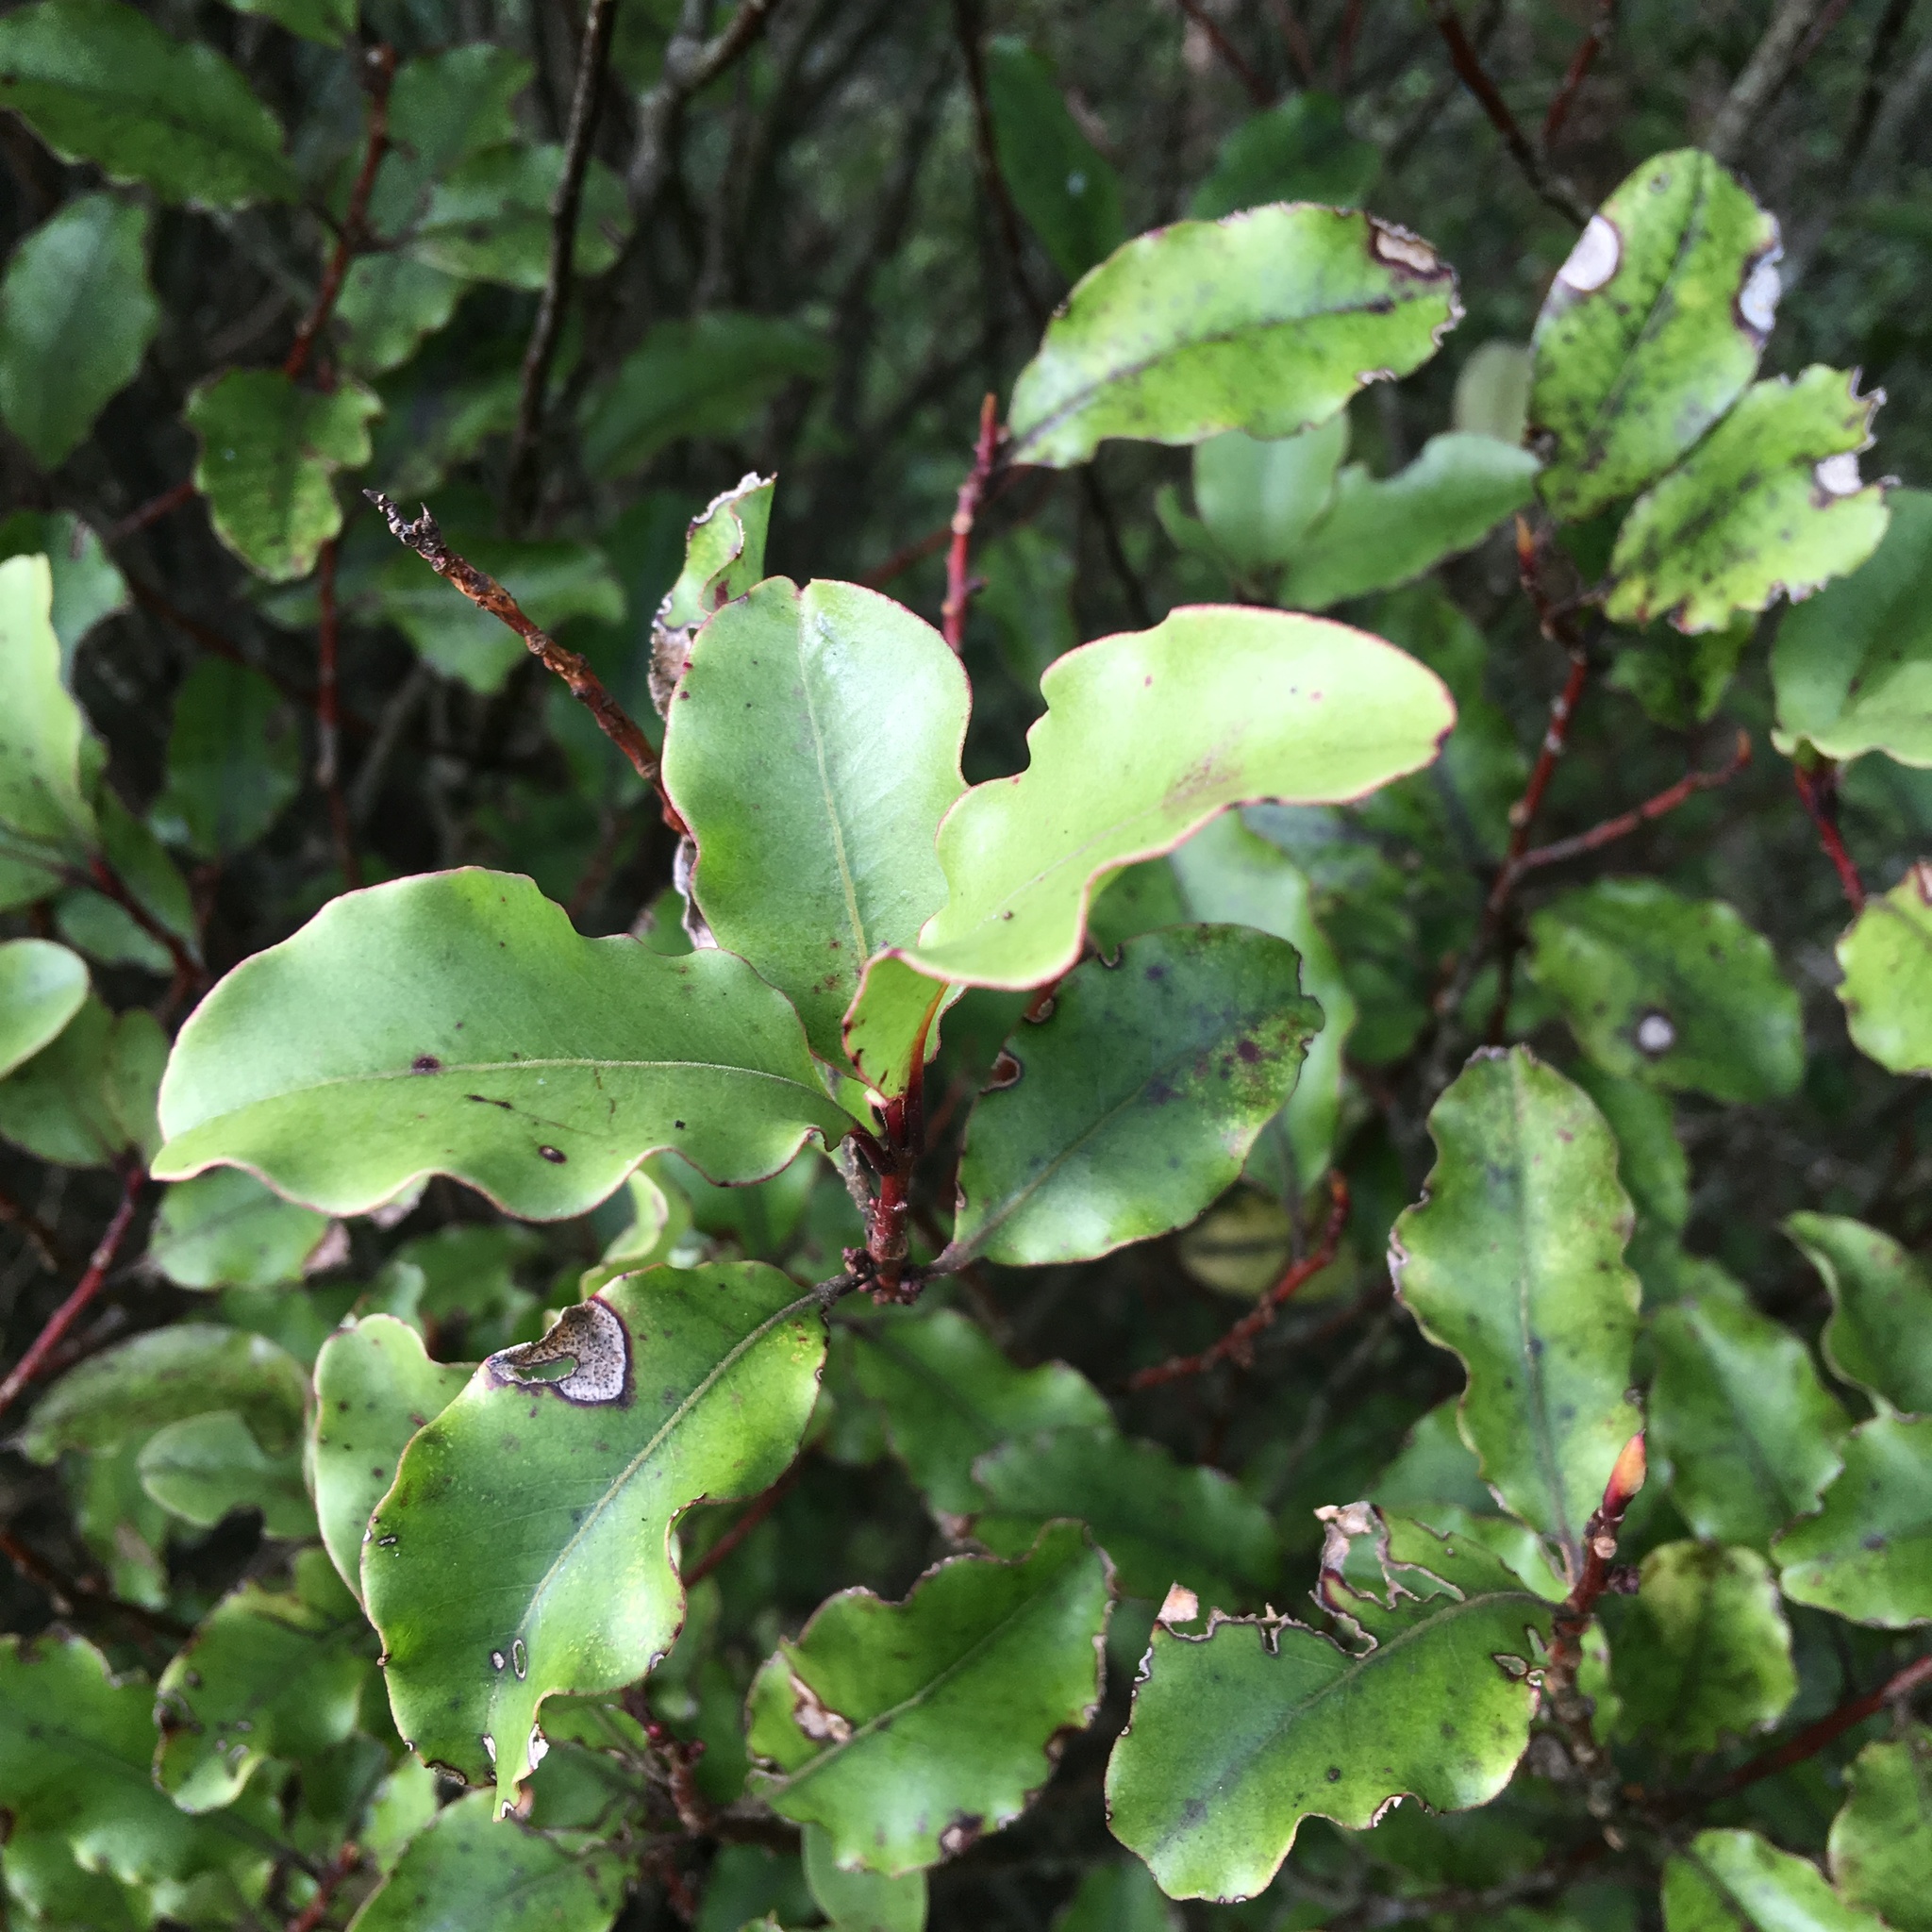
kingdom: Plantae
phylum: Tracheophyta
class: Magnoliopsida
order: Ericales
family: Primulaceae
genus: Myrsine
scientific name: Myrsine australis
